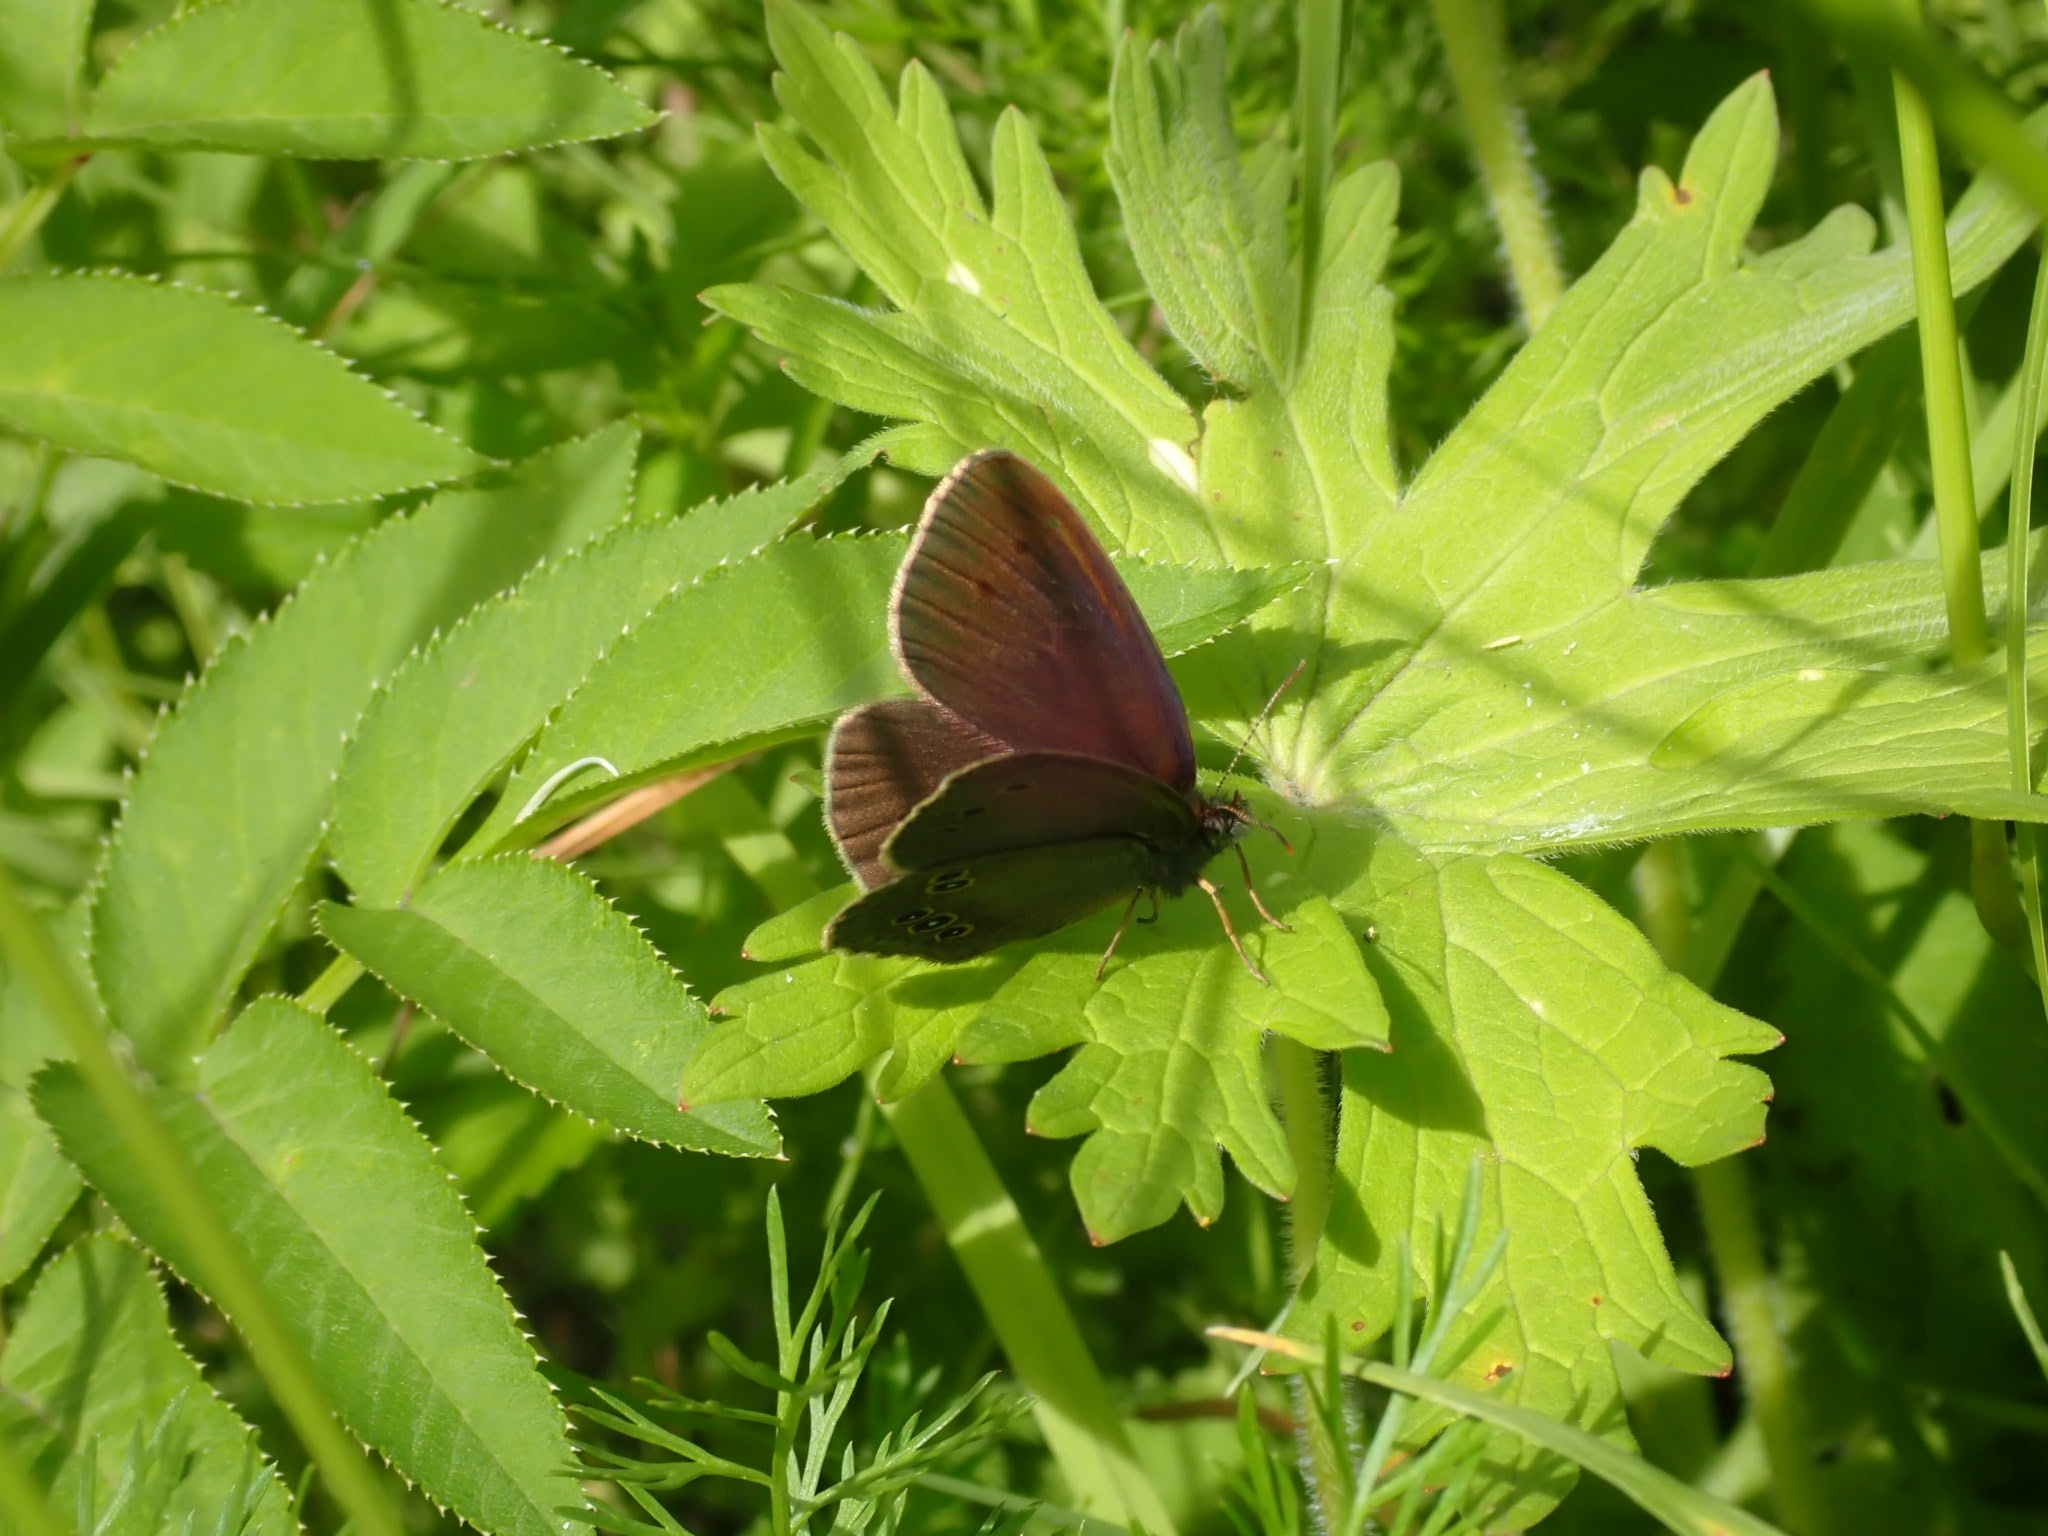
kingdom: Animalia
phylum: Arthropoda
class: Insecta
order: Lepidoptera
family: Nymphalidae
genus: Aphantopus
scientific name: Aphantopus hyperantus
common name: Ringlet
